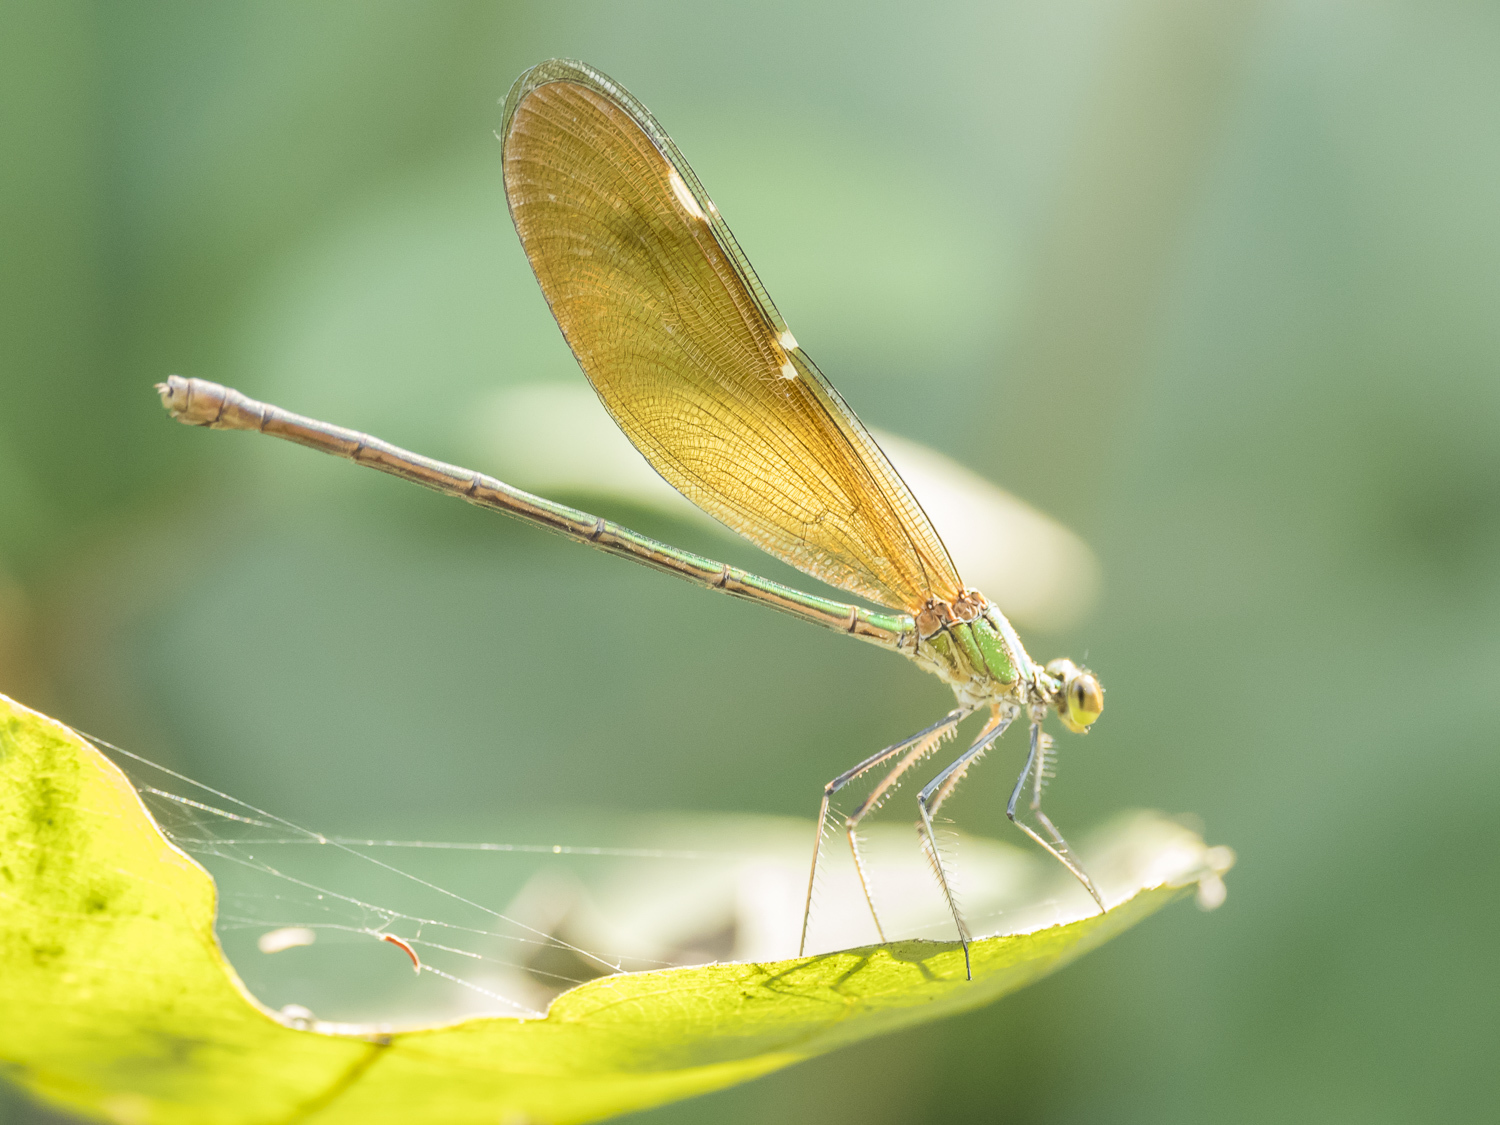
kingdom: Animalia
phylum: Arthropoda
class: Insecta
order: Odonata
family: Calopterygidae
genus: Neurobasis
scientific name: Neurobasis chinensis
